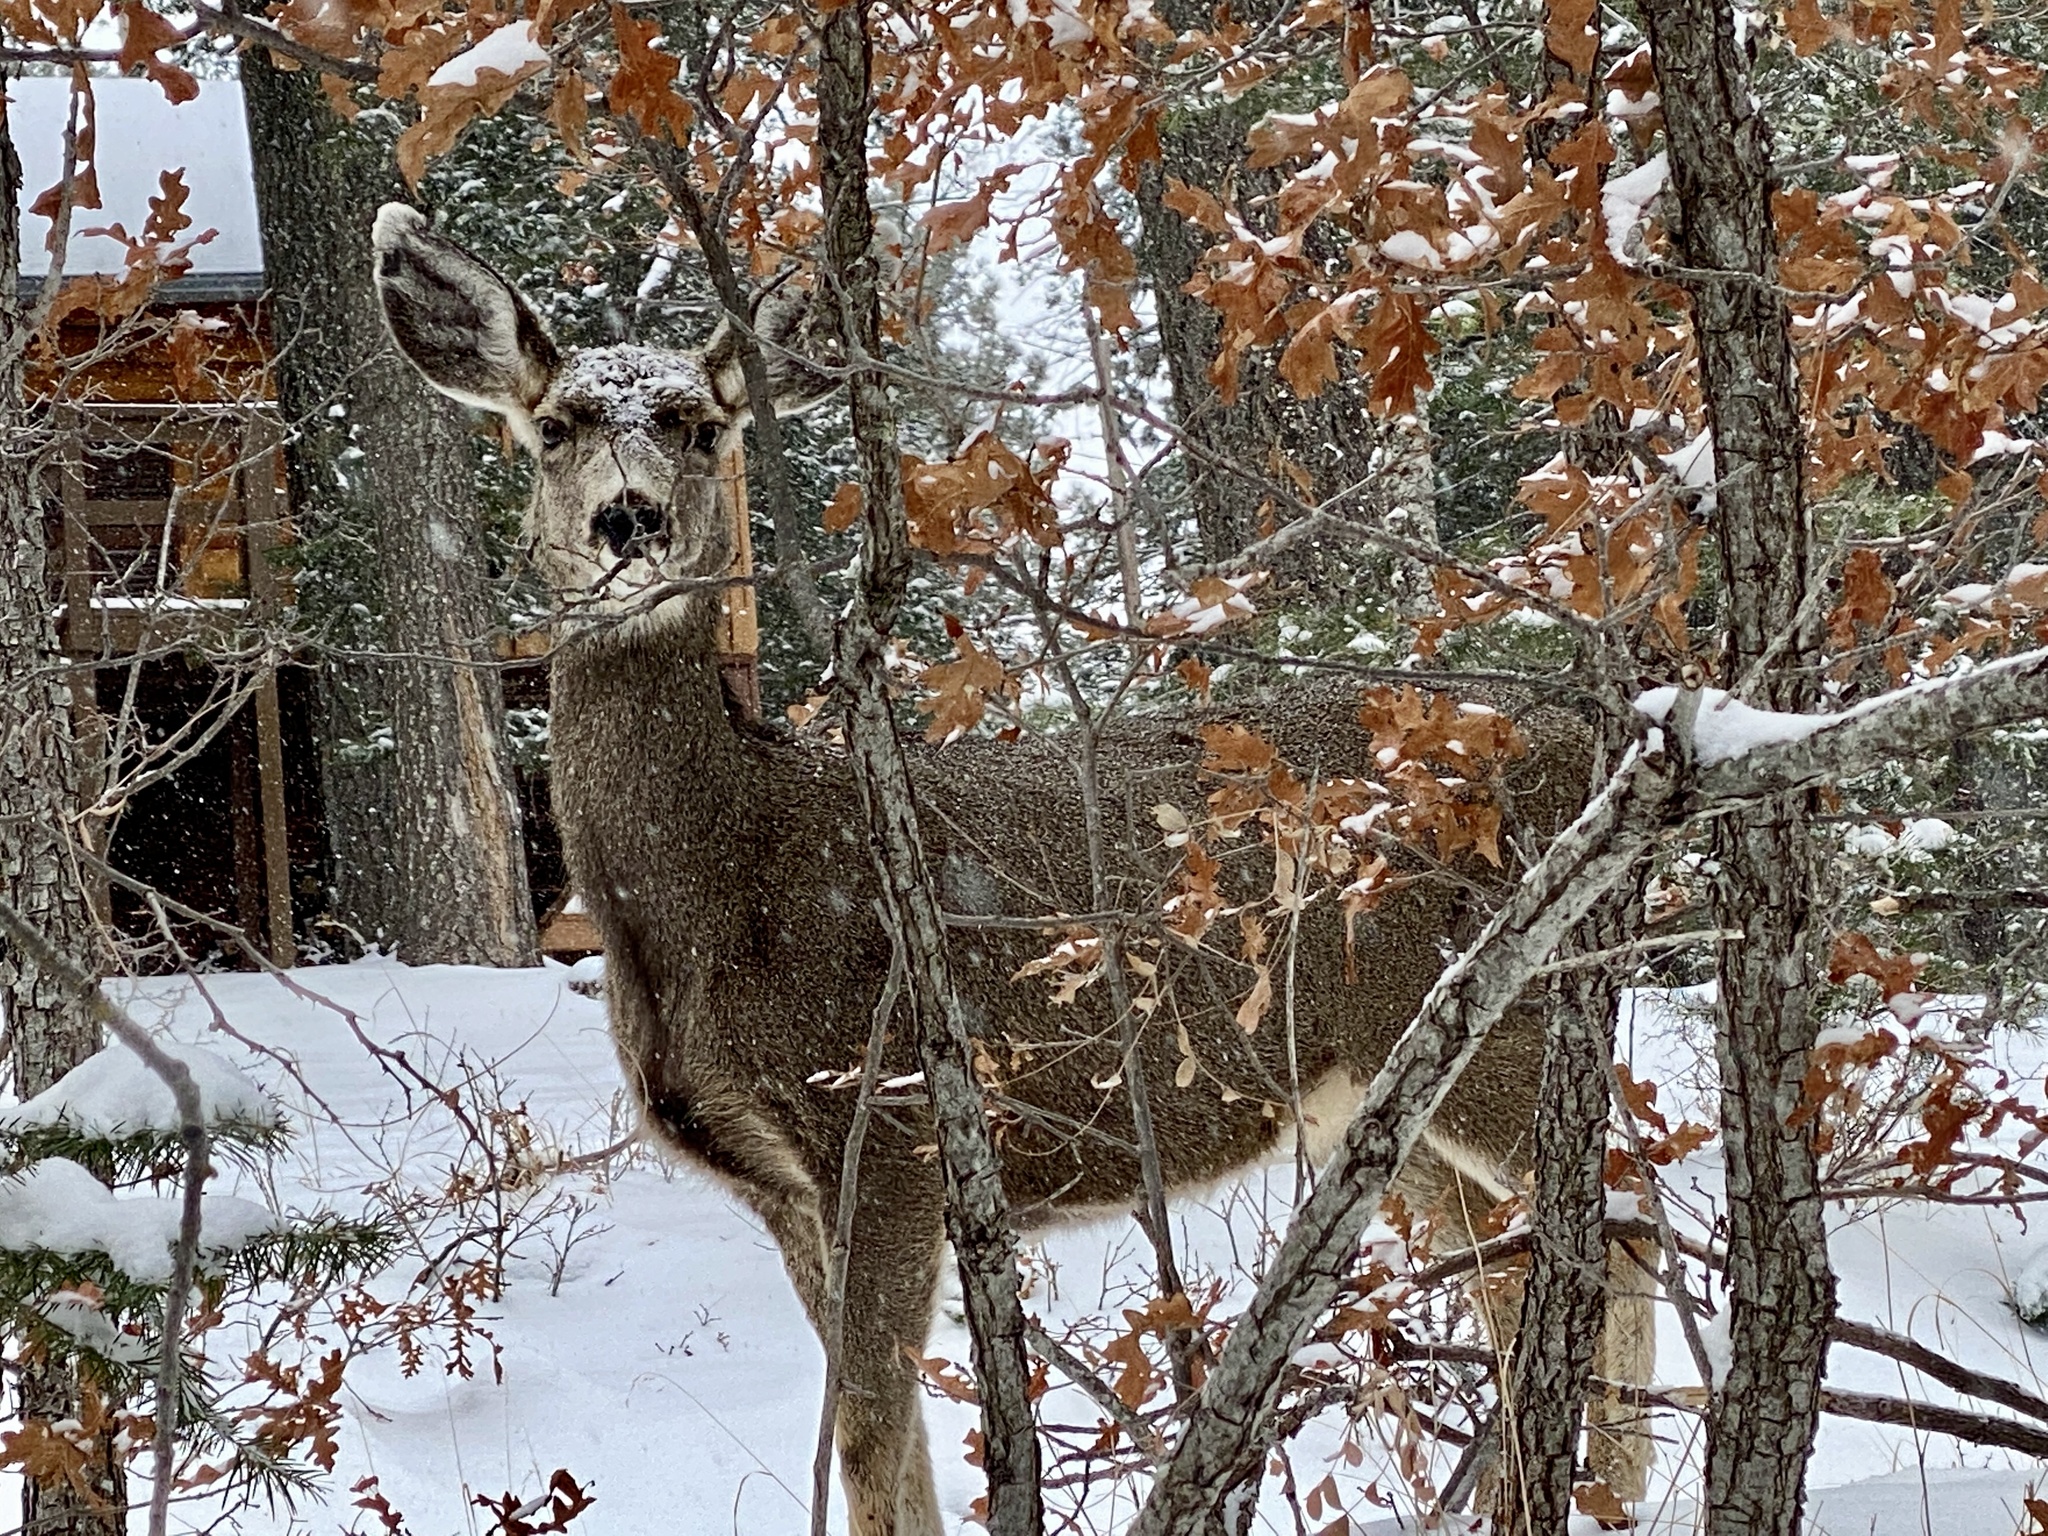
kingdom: Animalia
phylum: Chordata
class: Mammalia
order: Artiodactyla
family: Cervidae
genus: Odocoileus
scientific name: Odocoileus hemionus
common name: Mule deer
